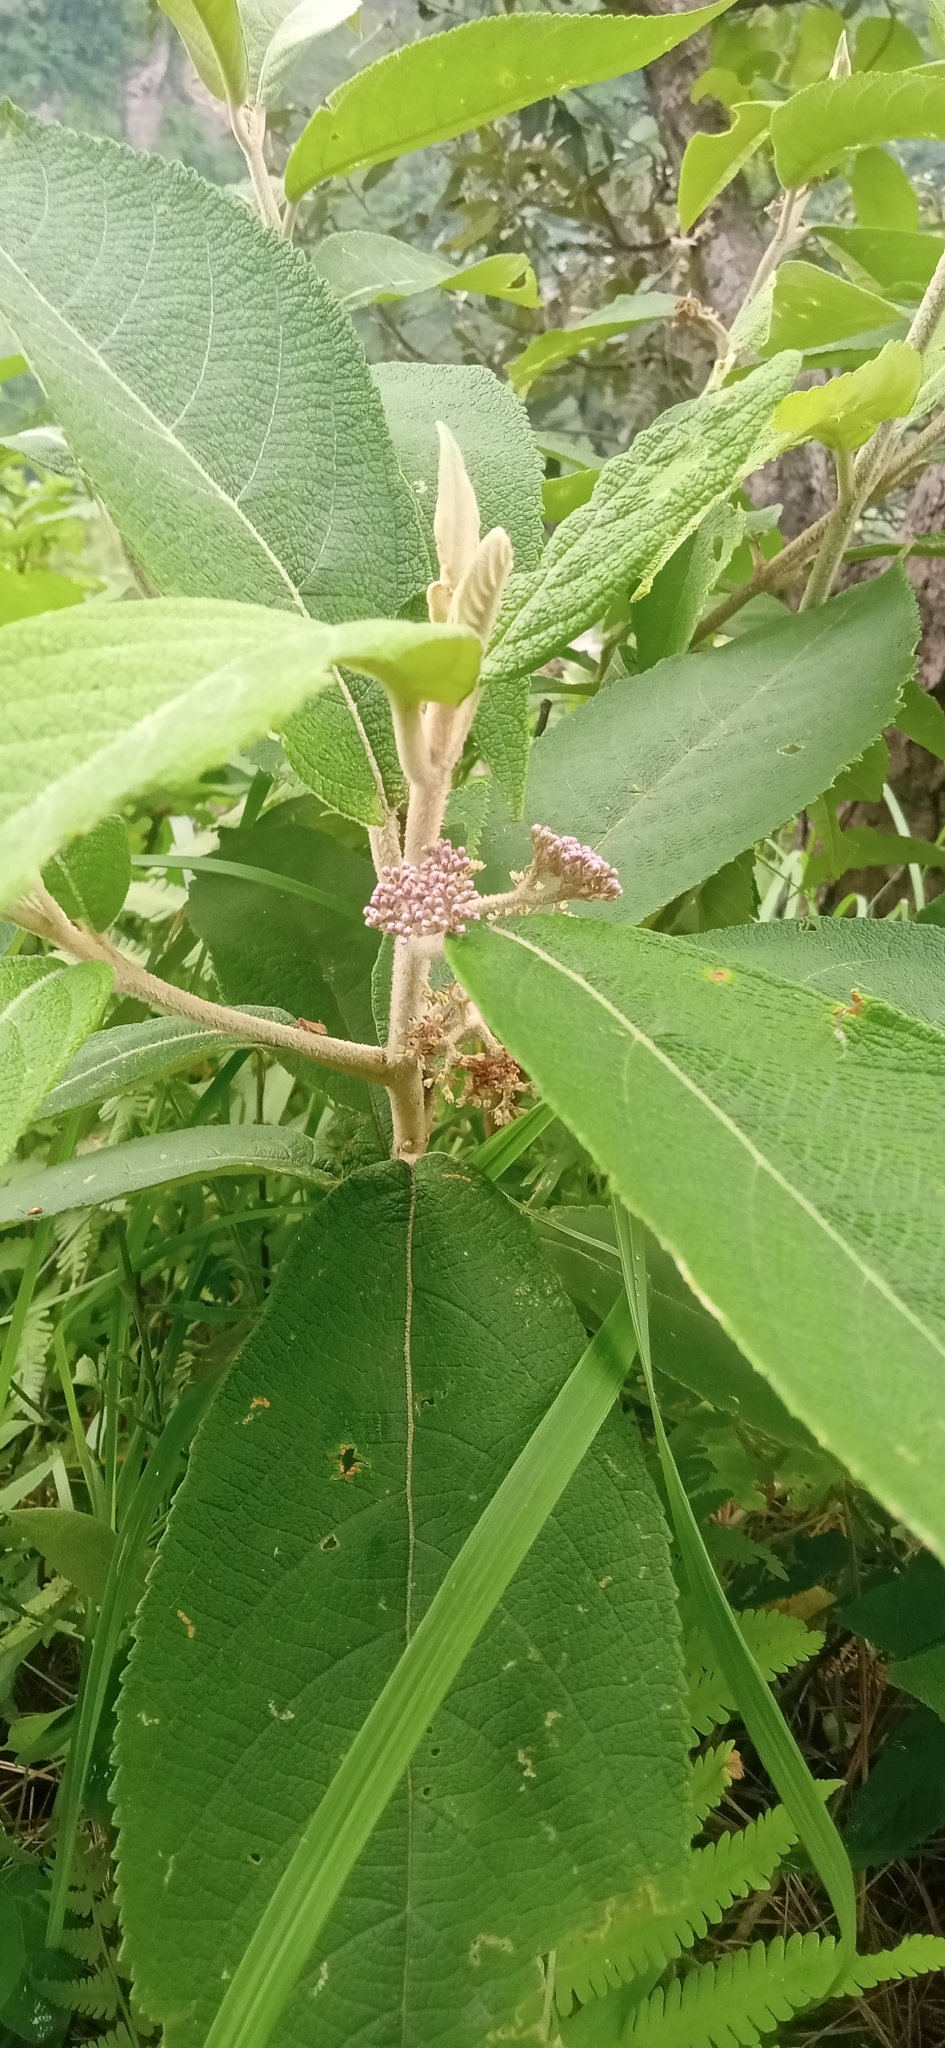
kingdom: Plantae
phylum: Tracheophyta
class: Magnoliopsida
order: Lamiales
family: Lamiaceae
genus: Callicarpa
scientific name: Callicarpa macrophylla
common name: Urn-fruit beauty-berry
